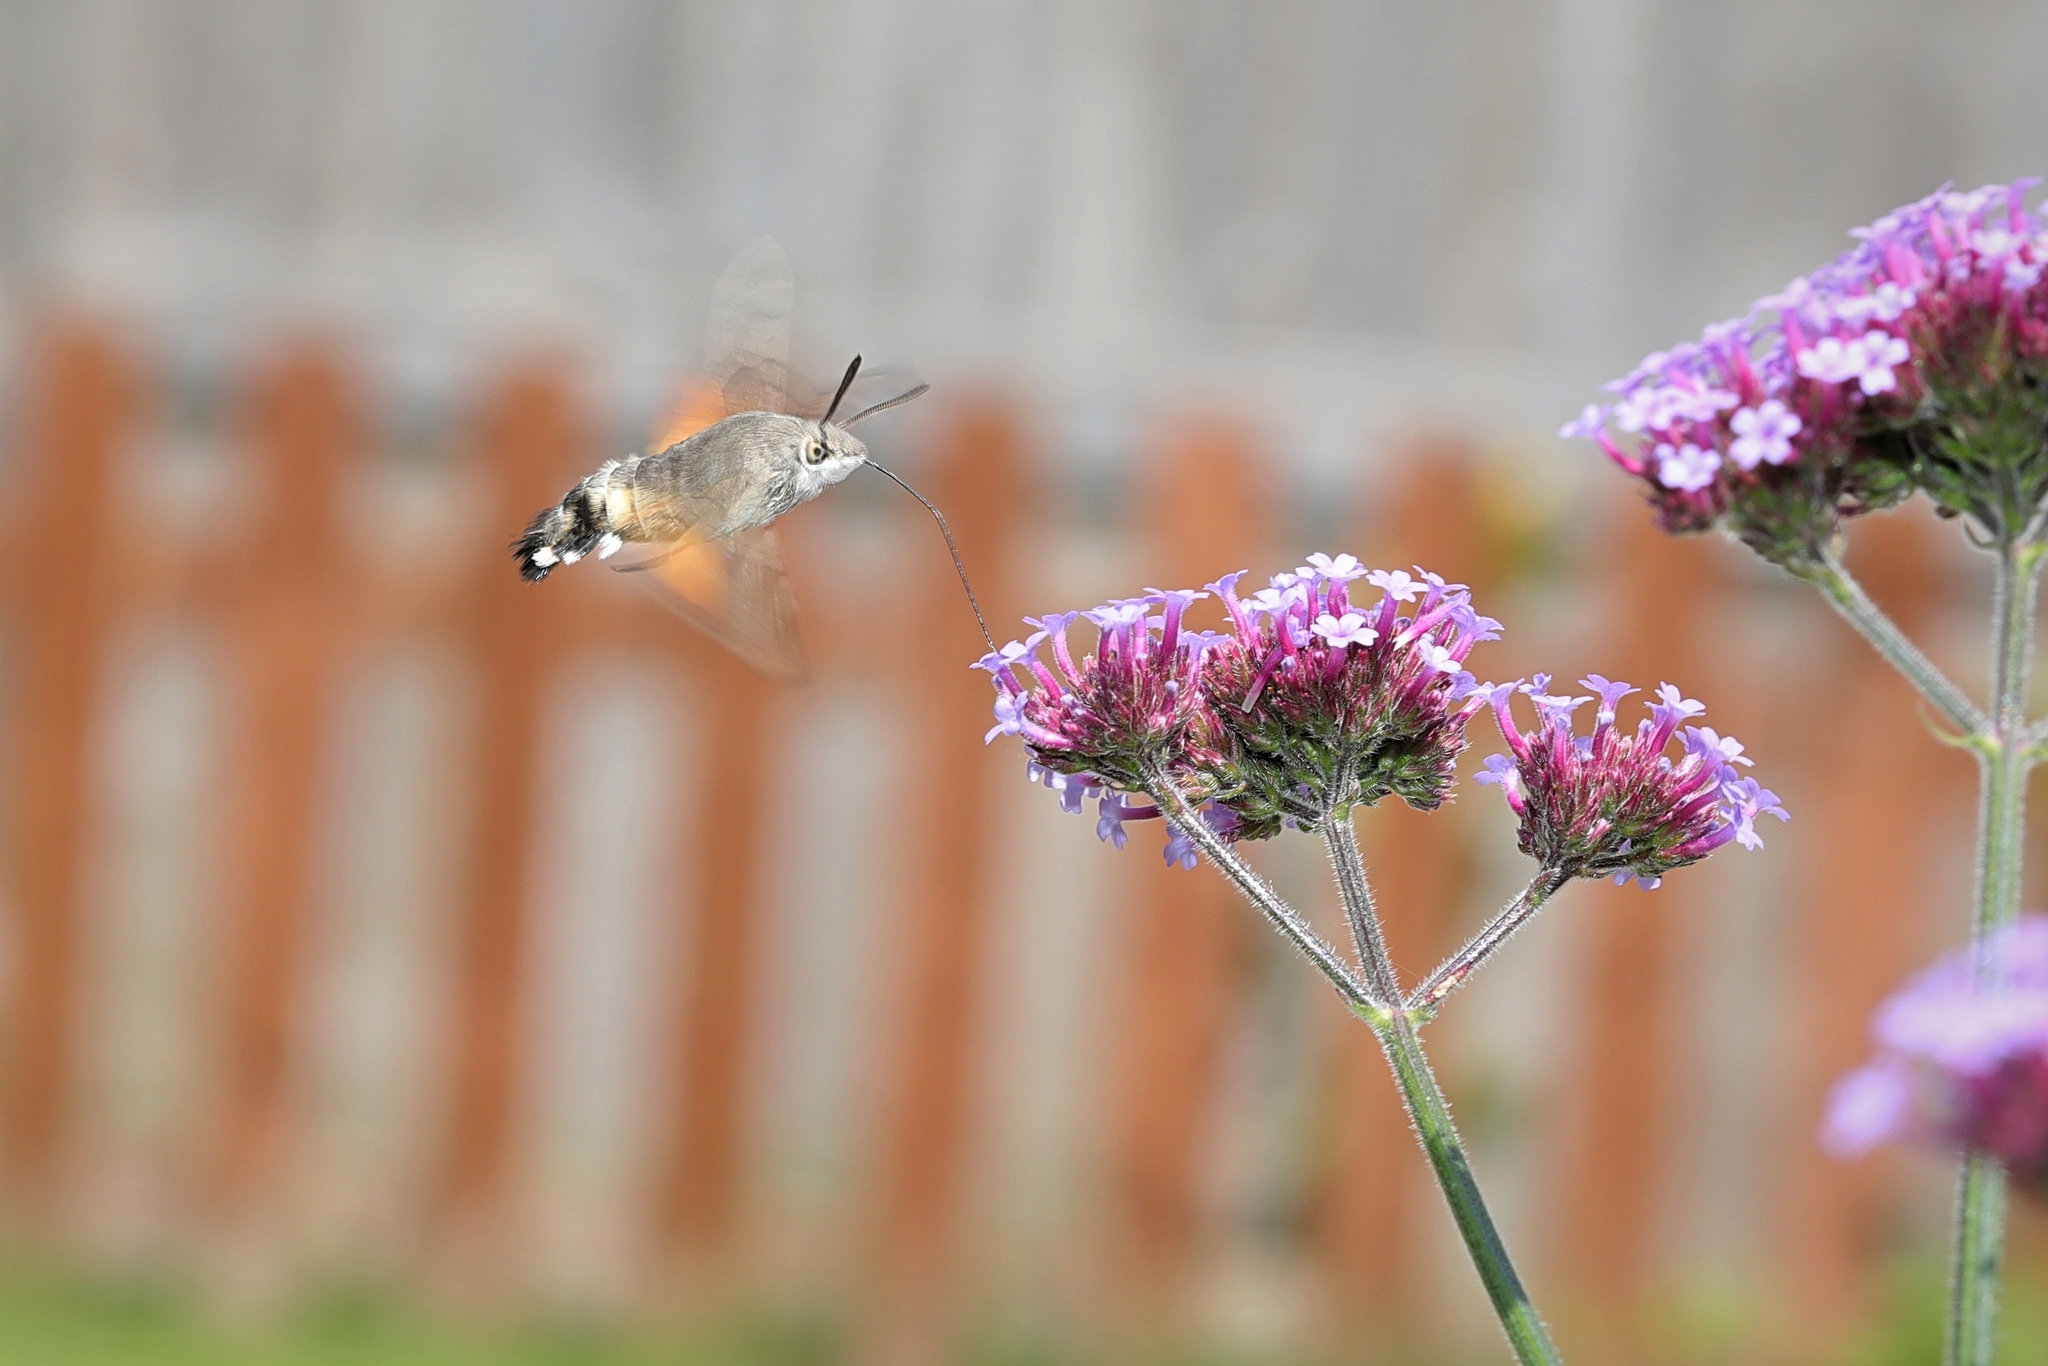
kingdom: Animalia
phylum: Arthropoda
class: Insecta
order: Lepidoptera
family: Sphingidae
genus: Macroglossum
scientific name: Macroglossum stellatarum
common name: Humming-bird hawk-moth
